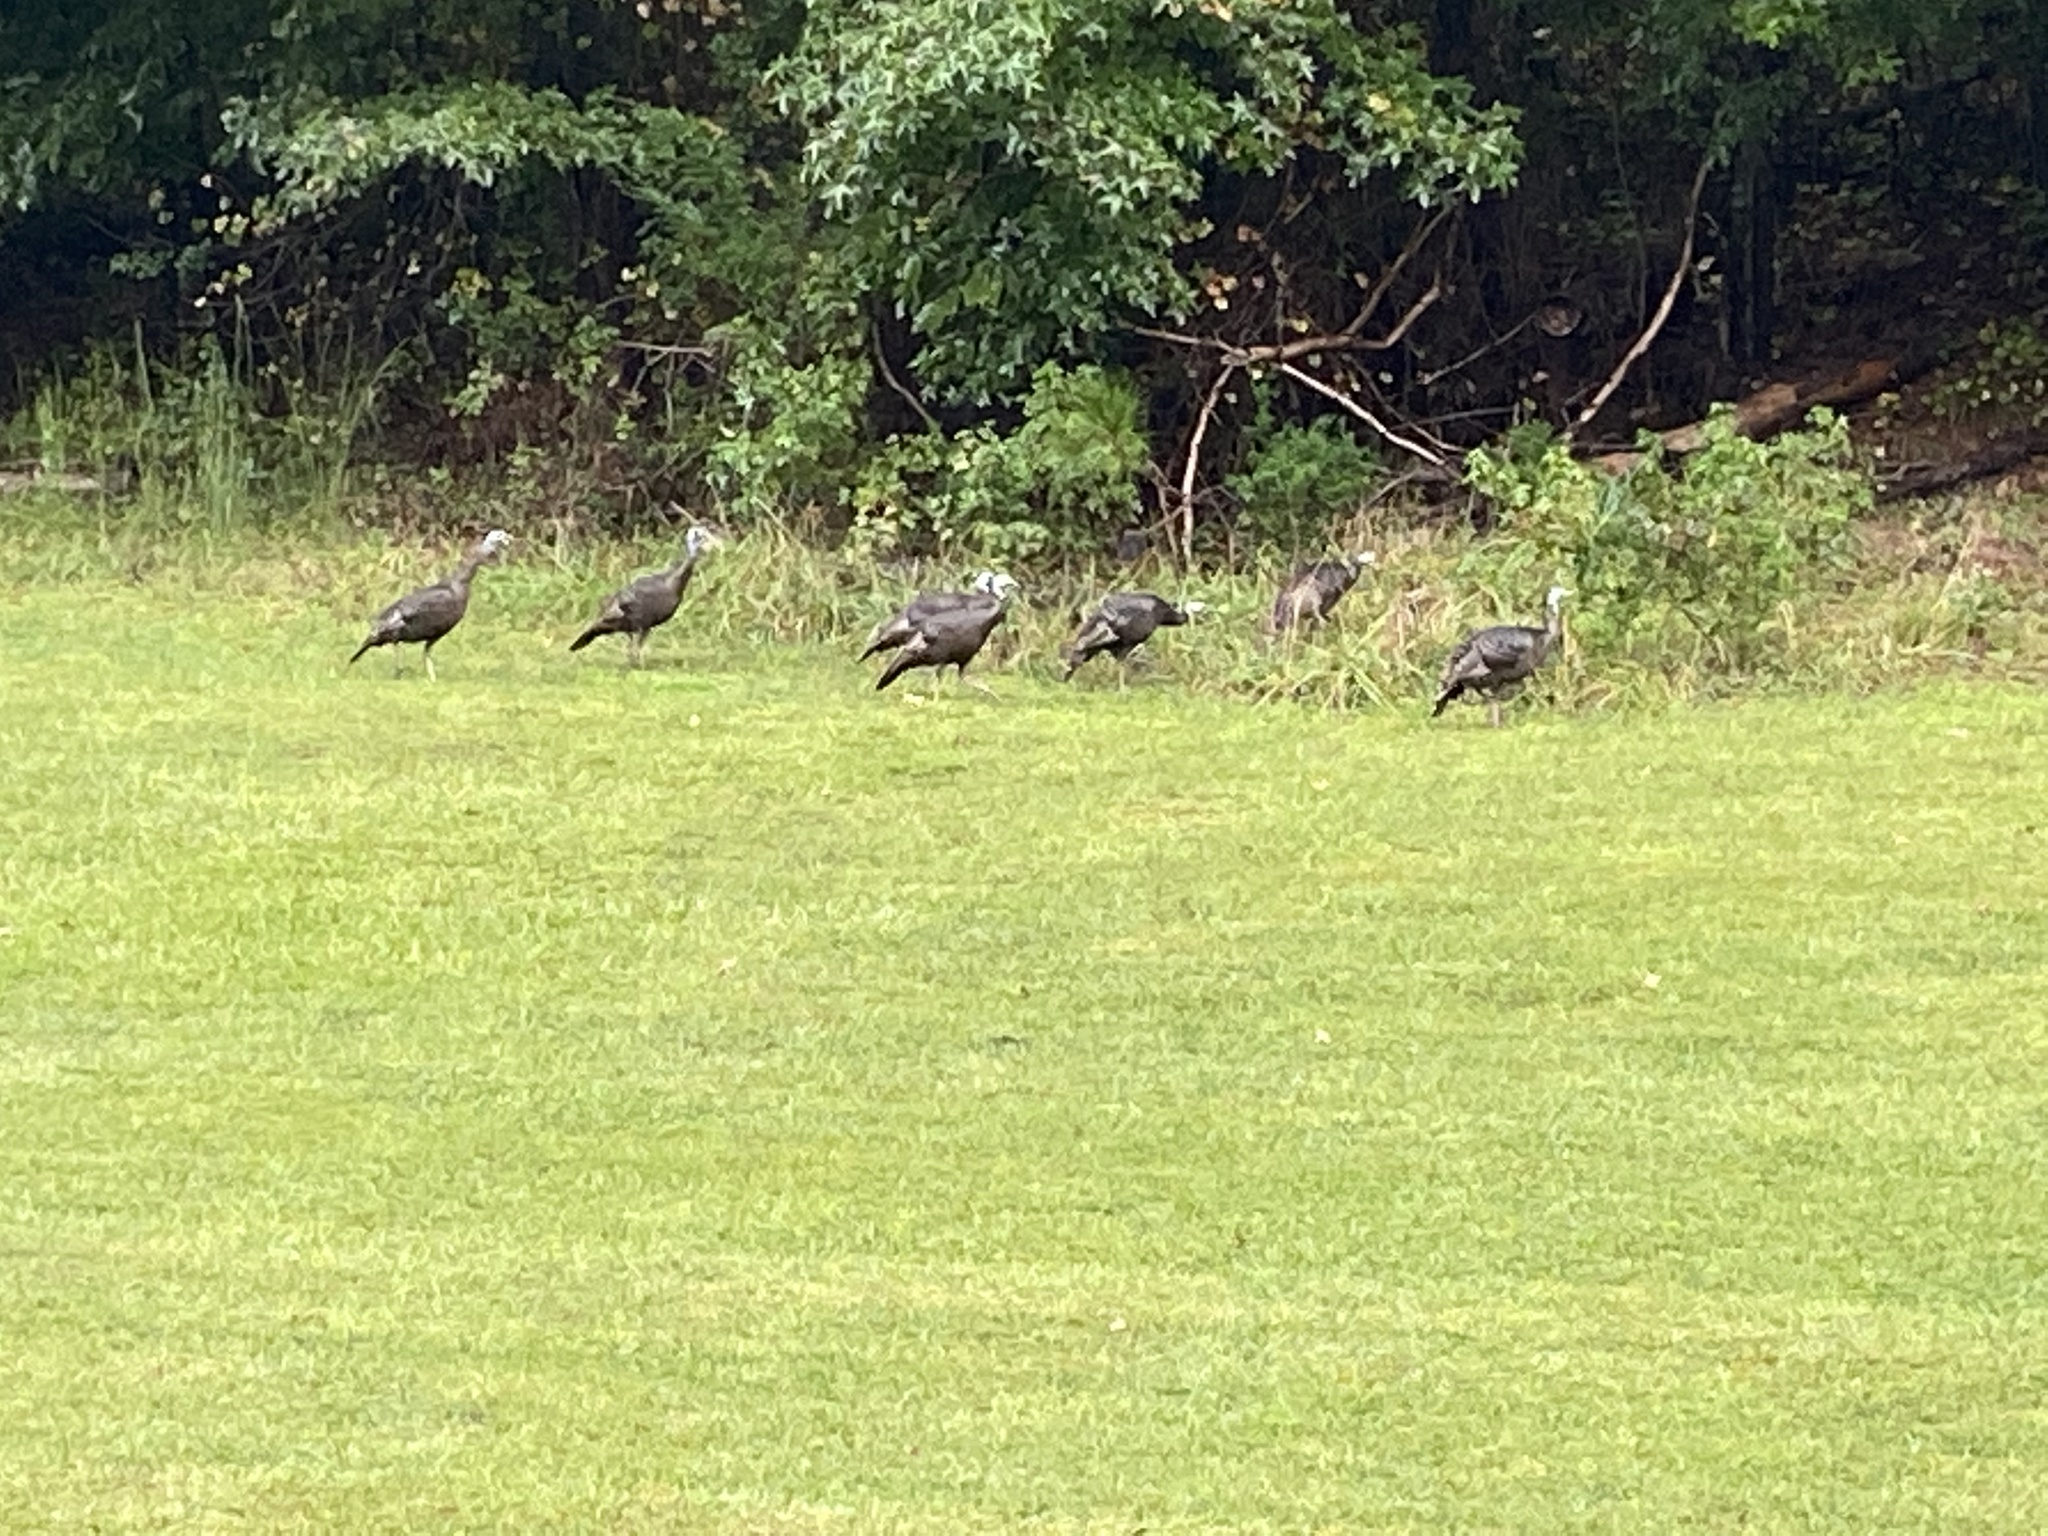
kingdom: Animalia
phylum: Chordata
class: Aves
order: Galliformes
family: Phasianidae
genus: Meleagris
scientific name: Meleagris gallopavo
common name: Wild turkey
